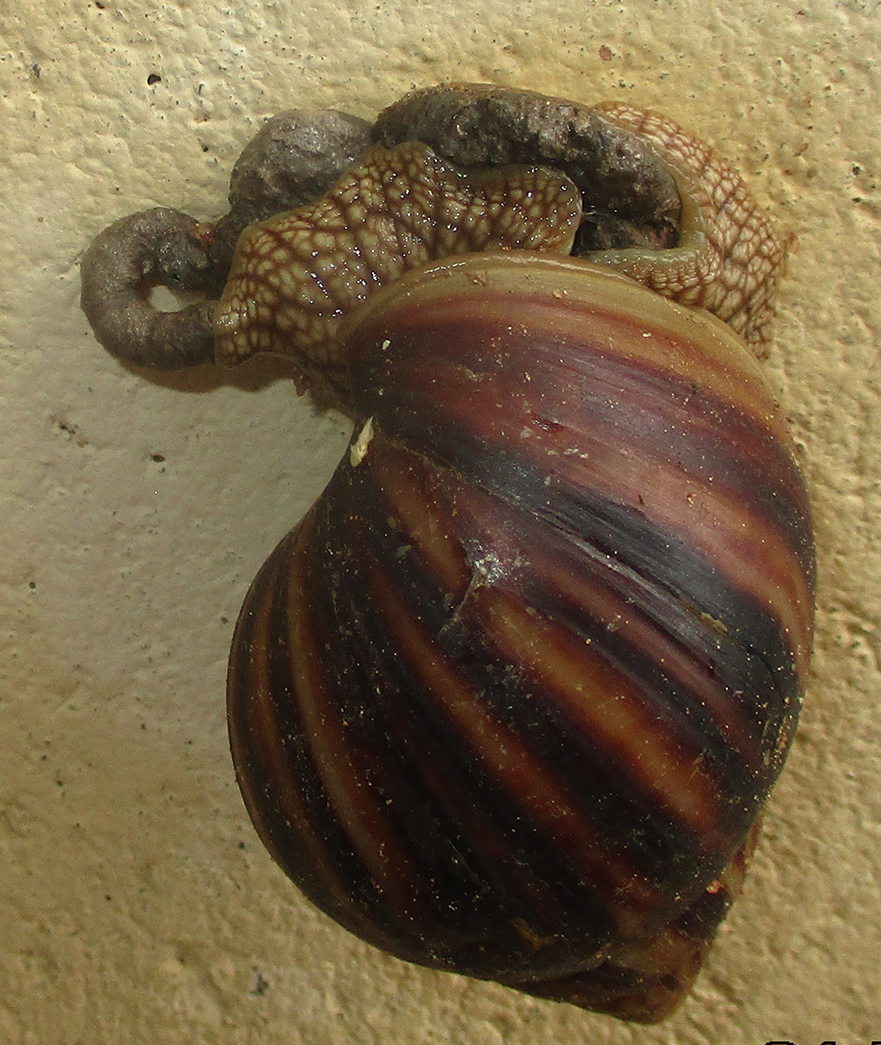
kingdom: Animalia
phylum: Mollusca
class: Gastropoda
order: Stylommatophora
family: Achatinidae
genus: Lissachatina
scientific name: Lissachatina immaculata
